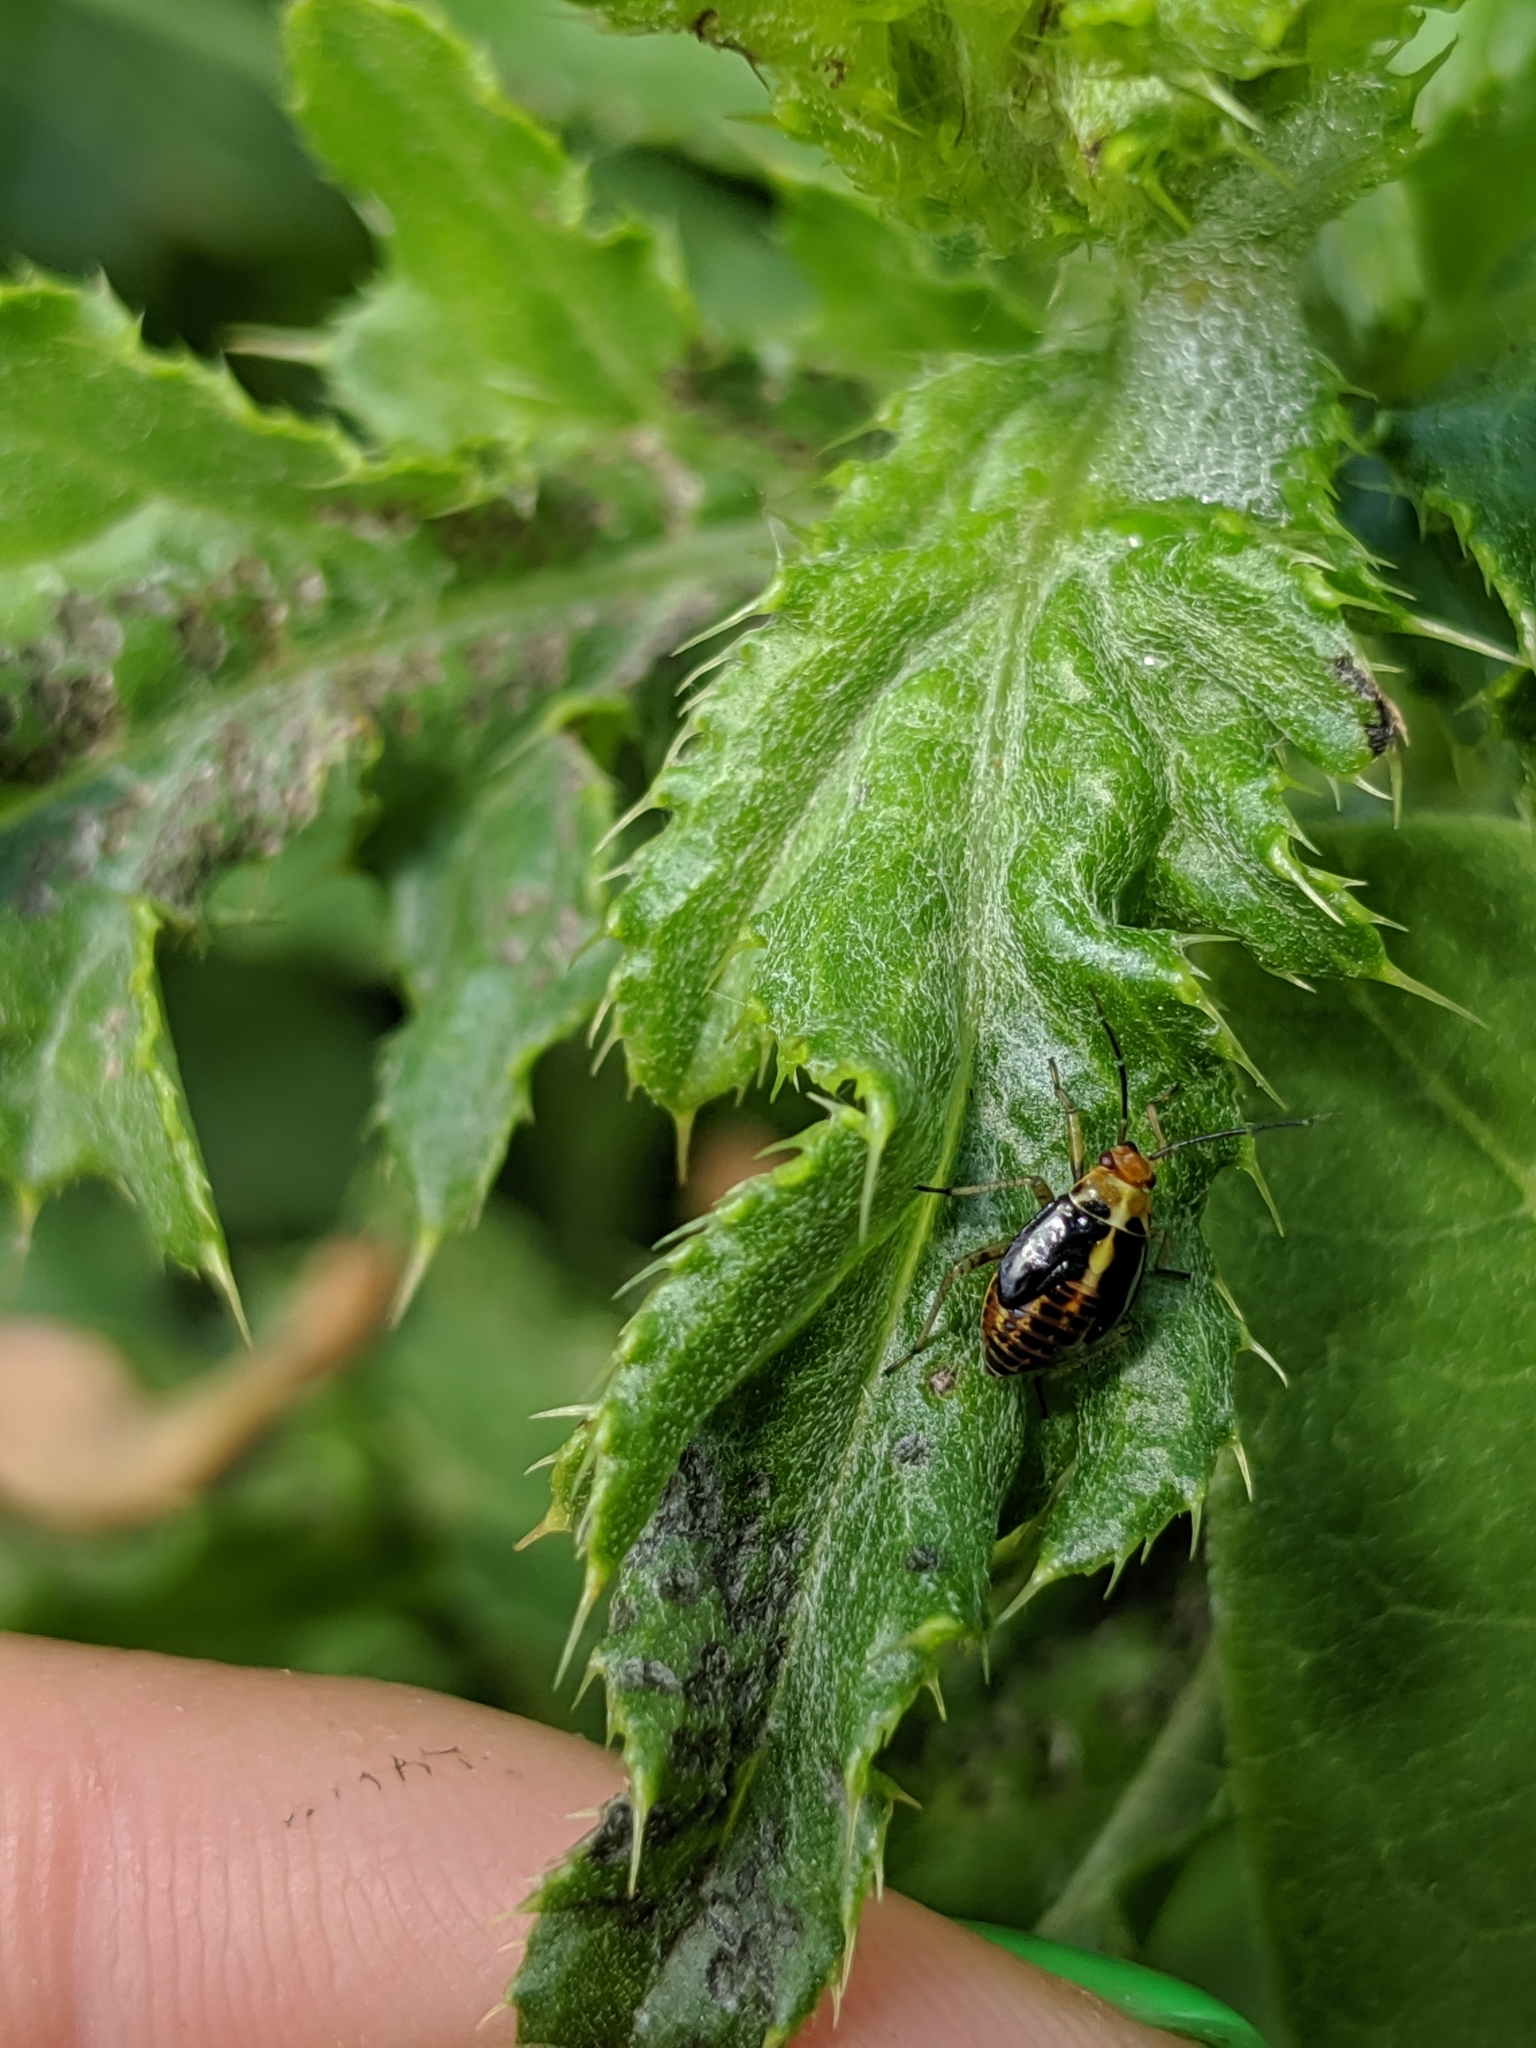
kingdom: Animalia
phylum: Arthropoda
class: Insecta
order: Hemiptera
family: Miridae
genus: Poecilocapsus
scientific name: Poecilocapsus lineatus
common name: Four-lined plant bug
